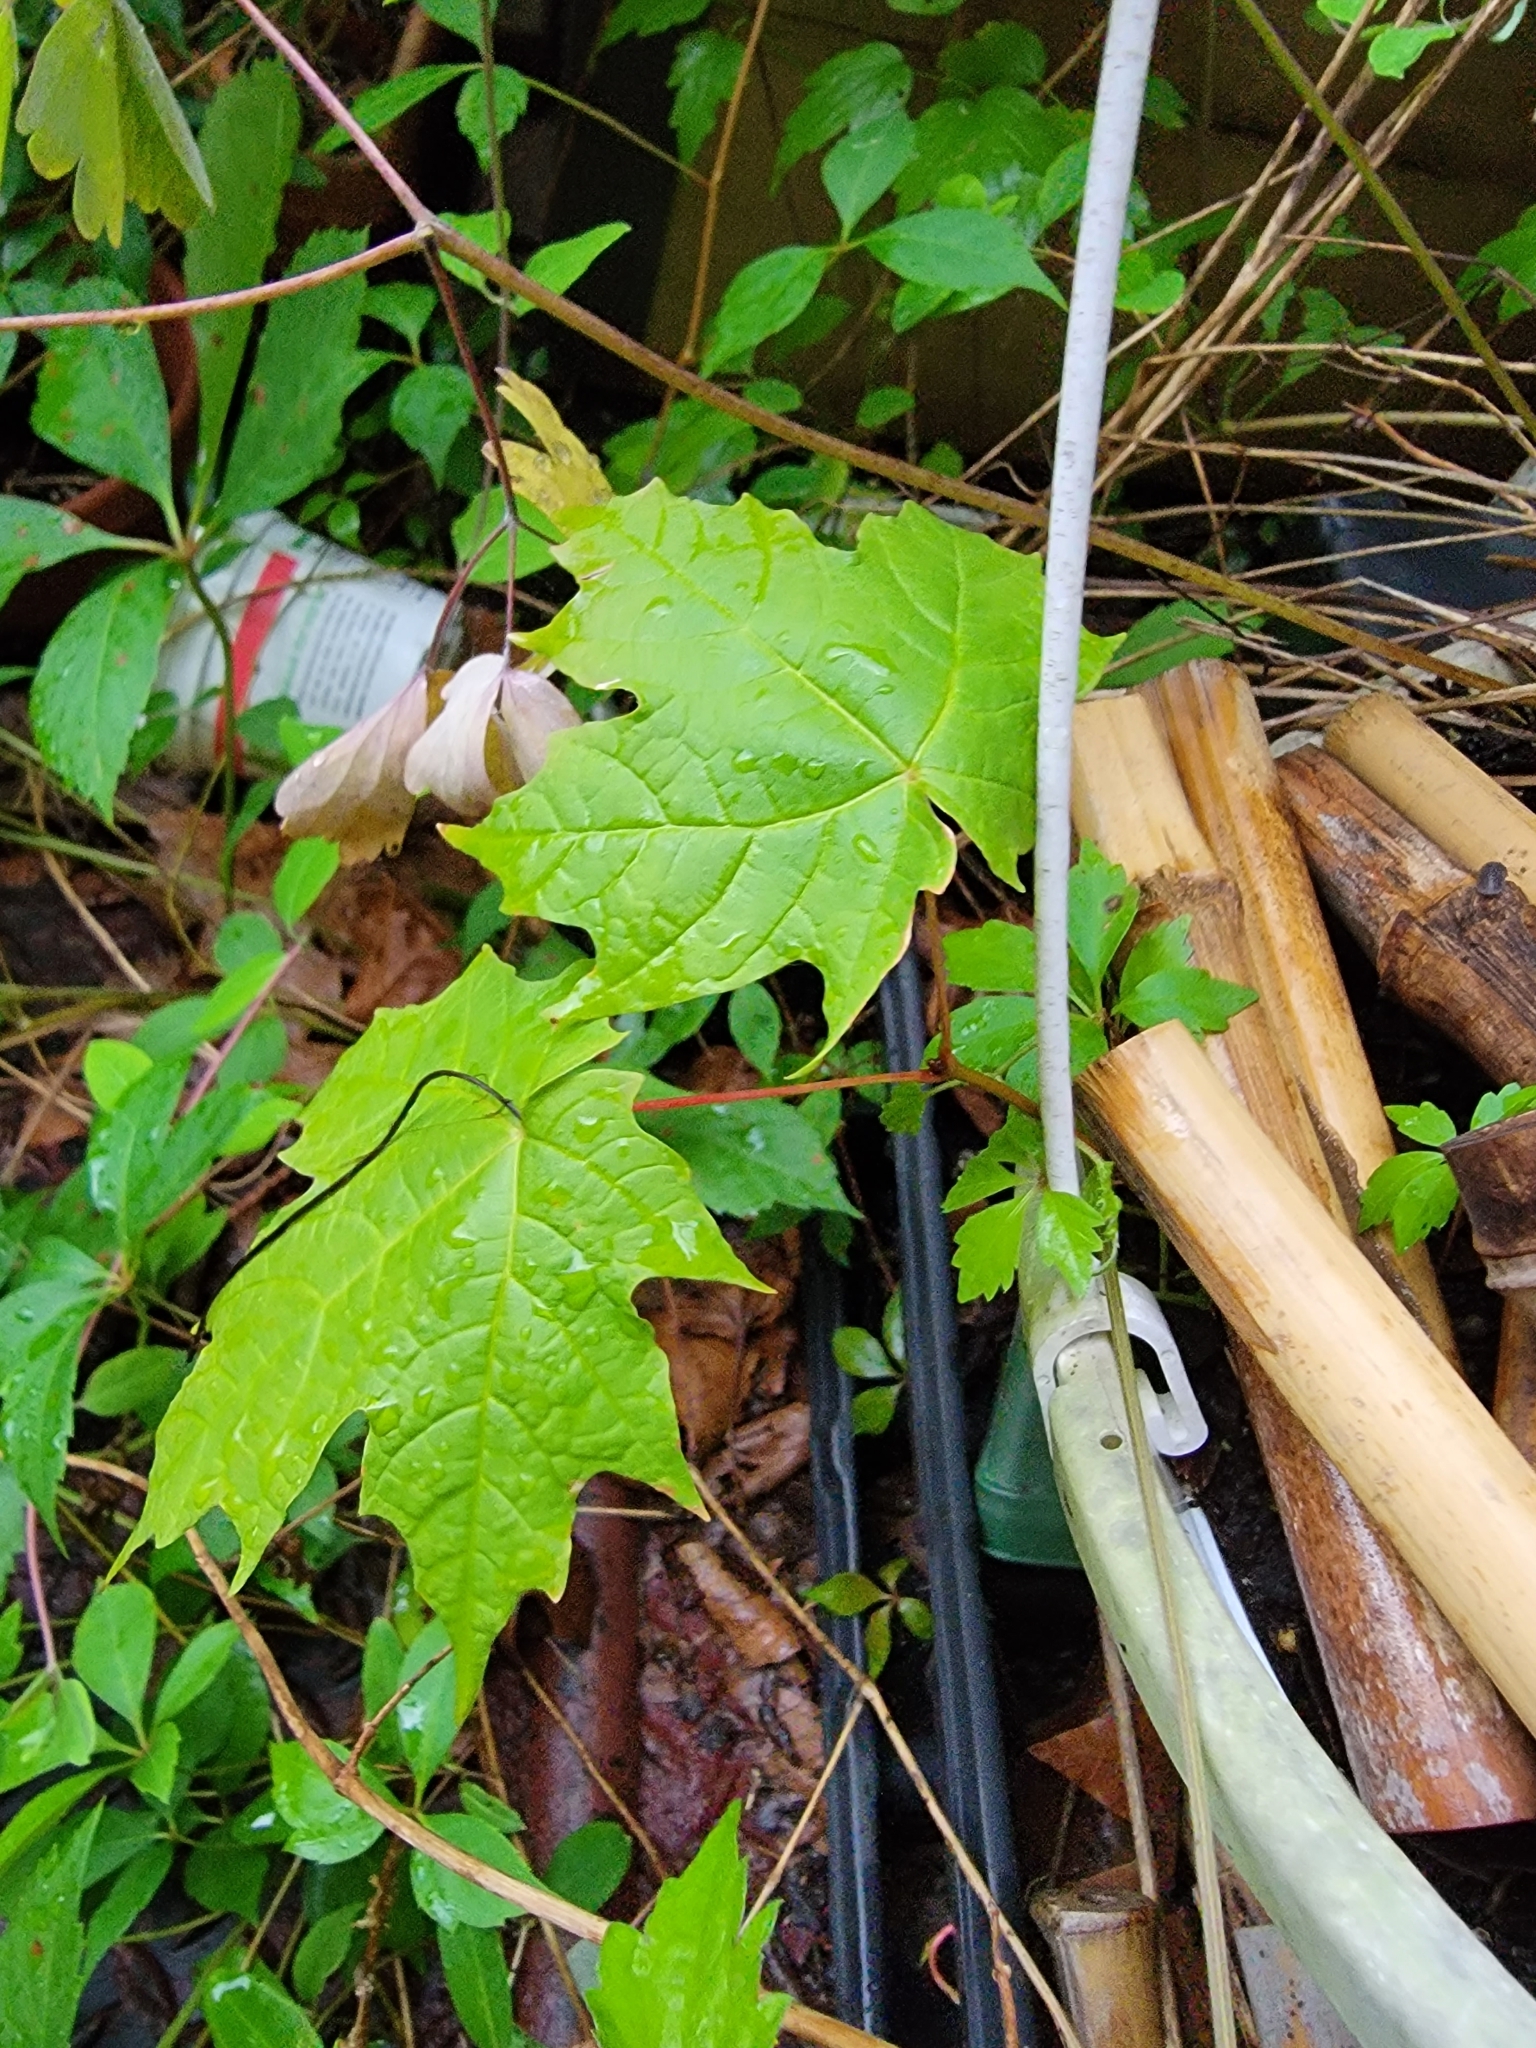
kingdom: Plantae
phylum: Tracheophyta
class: Magnoliopsida
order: Sapindales
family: Sapindaceae
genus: Acer
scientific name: Acer saccharum
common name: Sugar maple
